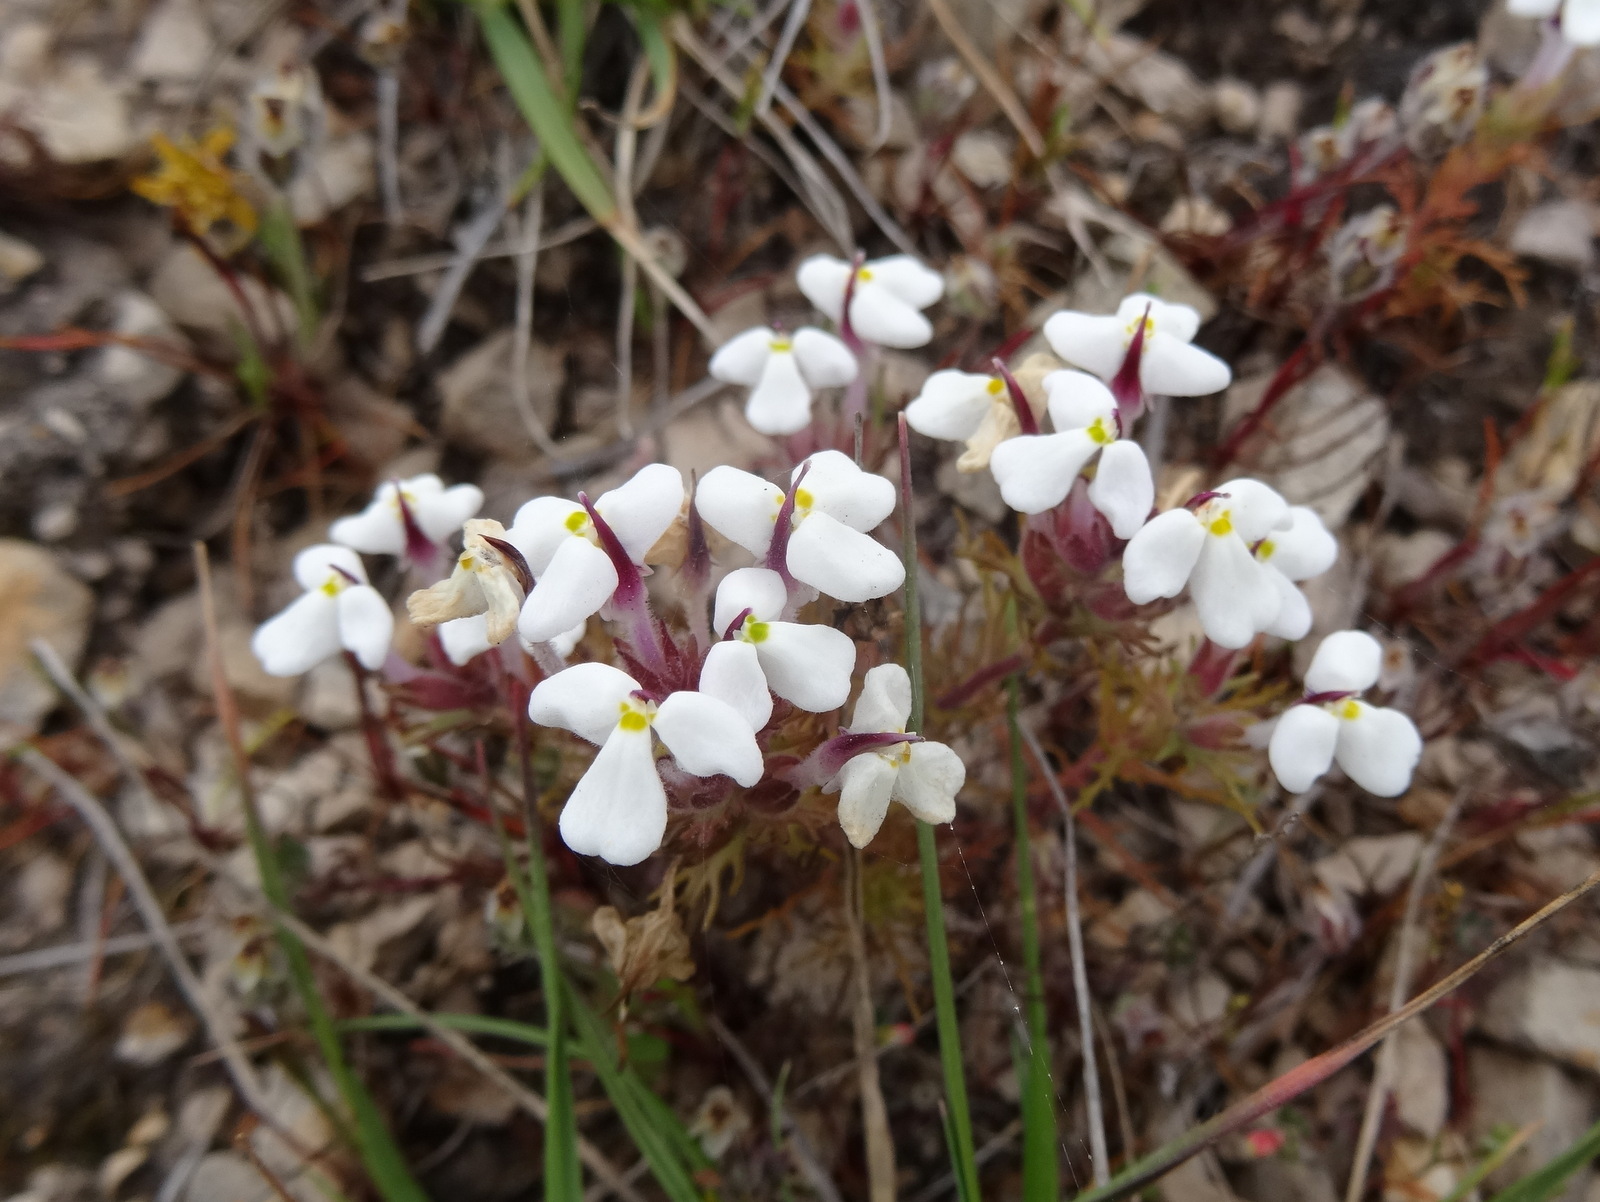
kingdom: Plantae
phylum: Tracheophyta
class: Magnoliopsida
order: Lamiales
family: Orobanchaceae
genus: Triphysaria
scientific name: Triphysaria eriantha
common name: Johnny-tuck
